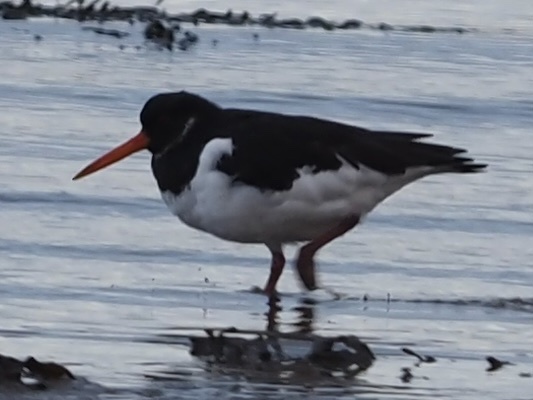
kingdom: Animalia
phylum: Chordata
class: Aves
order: Charadriiformes
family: Haematopodidae
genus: Haematopus
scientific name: Haematopus ostralegus
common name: Eurasian oystercatcher
